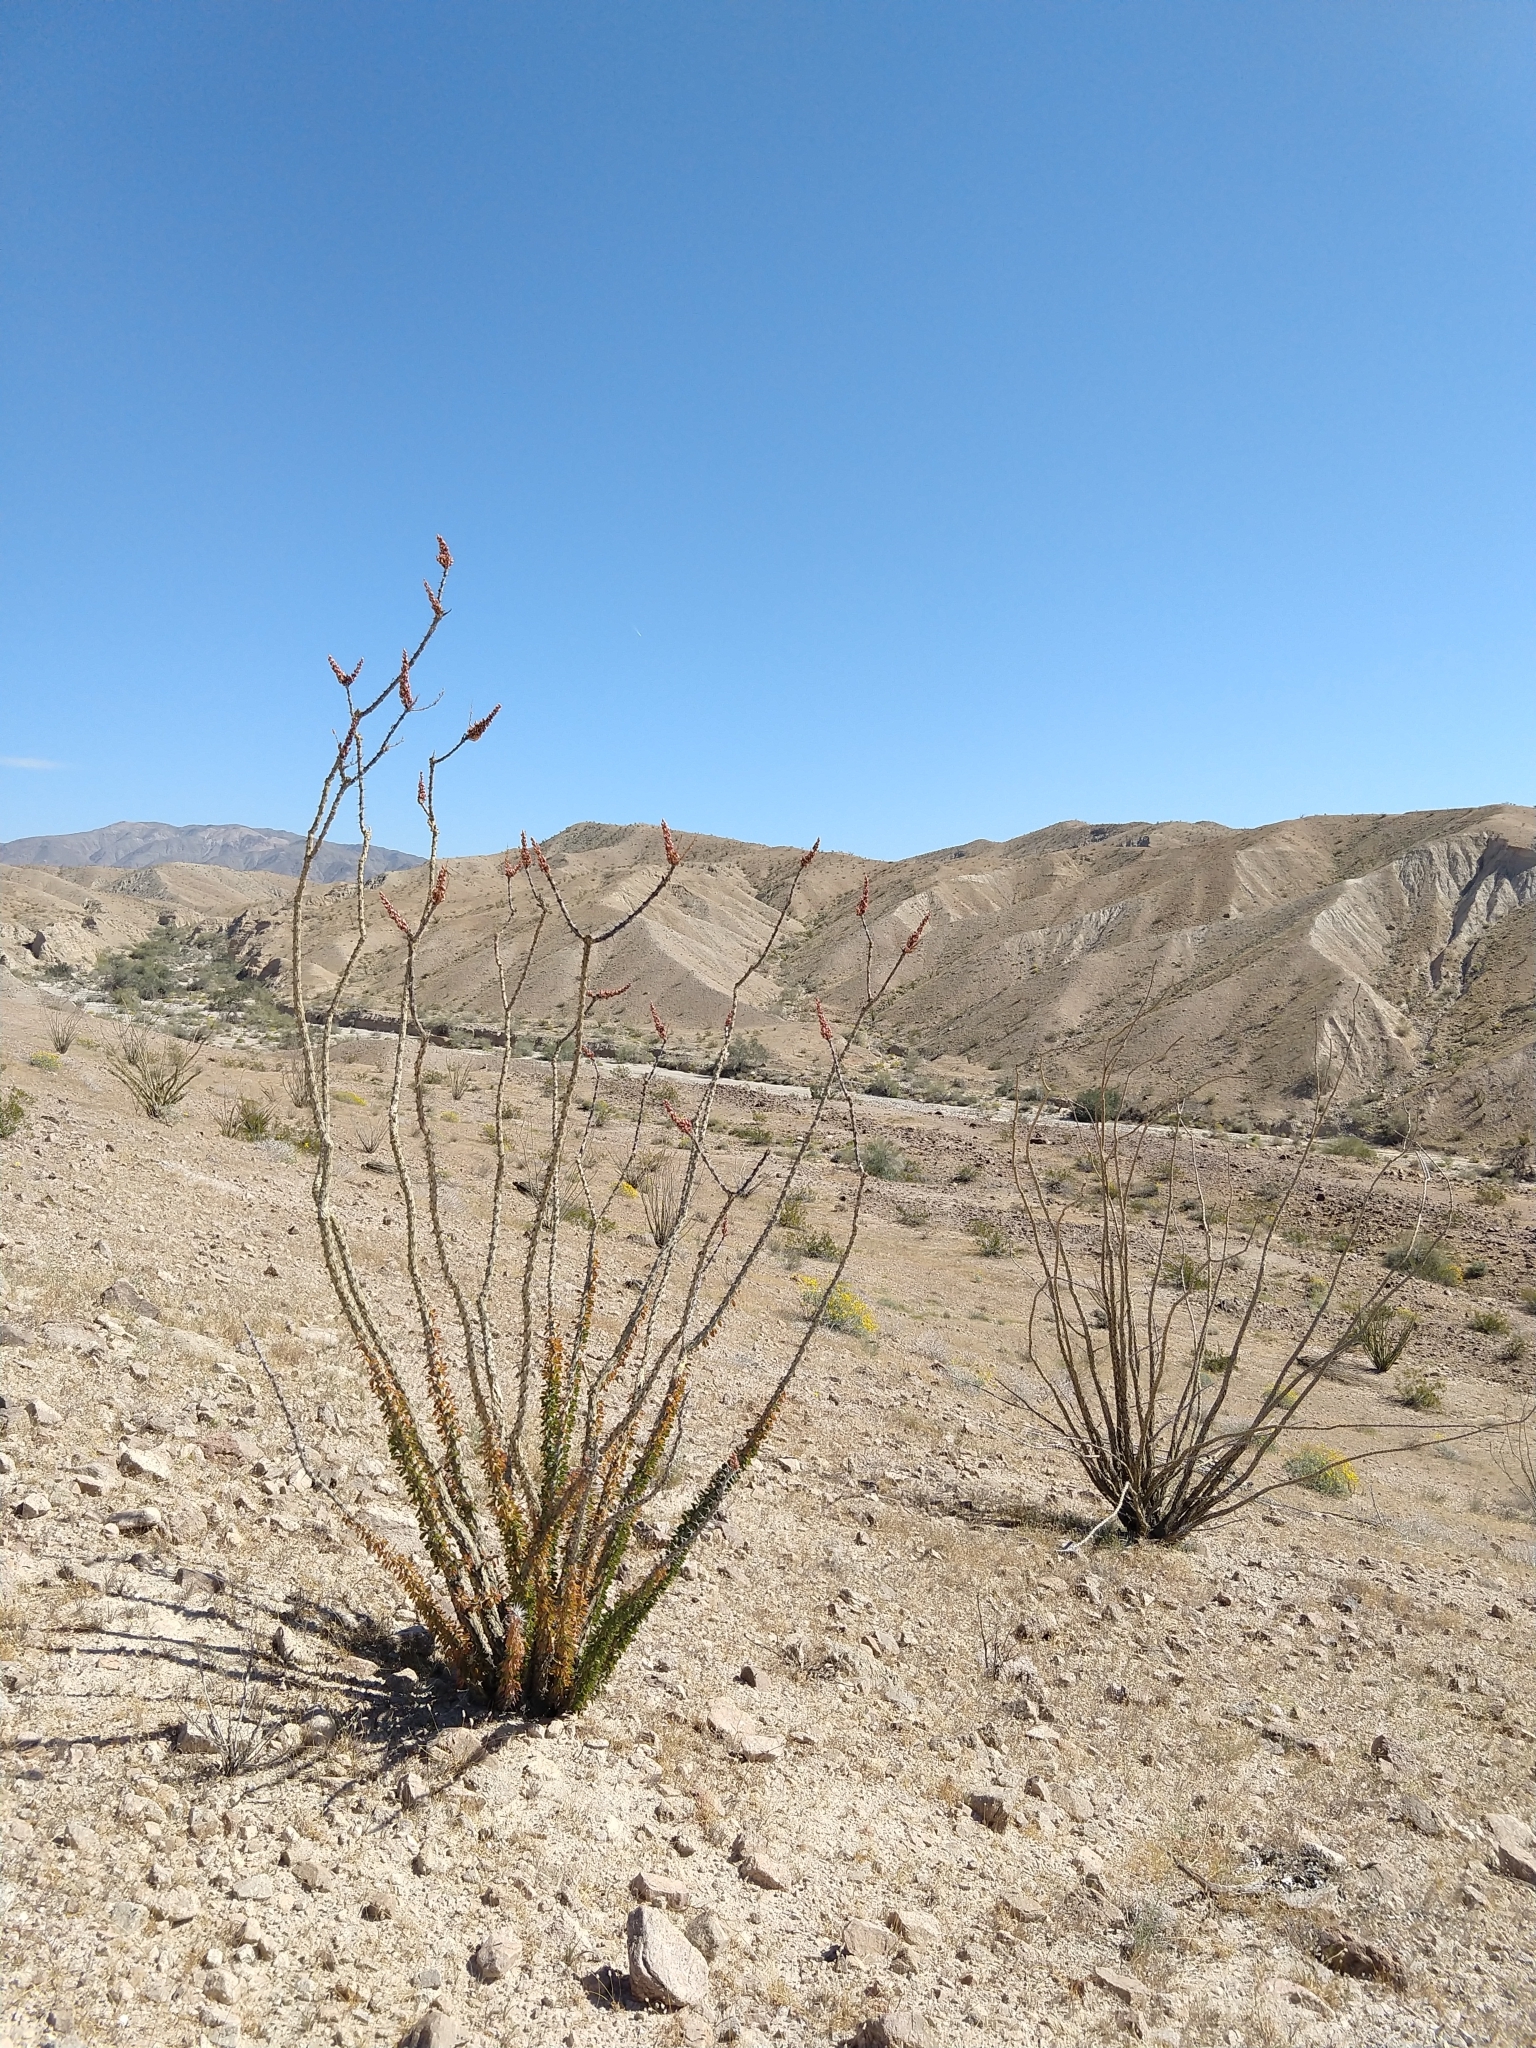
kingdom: Plantae
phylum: Tracheophyta
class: Magnoliopsida
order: Ericales
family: Fouquieriaceae
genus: Fouquieria
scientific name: Fouquieria splendens
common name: Vine-cactus
